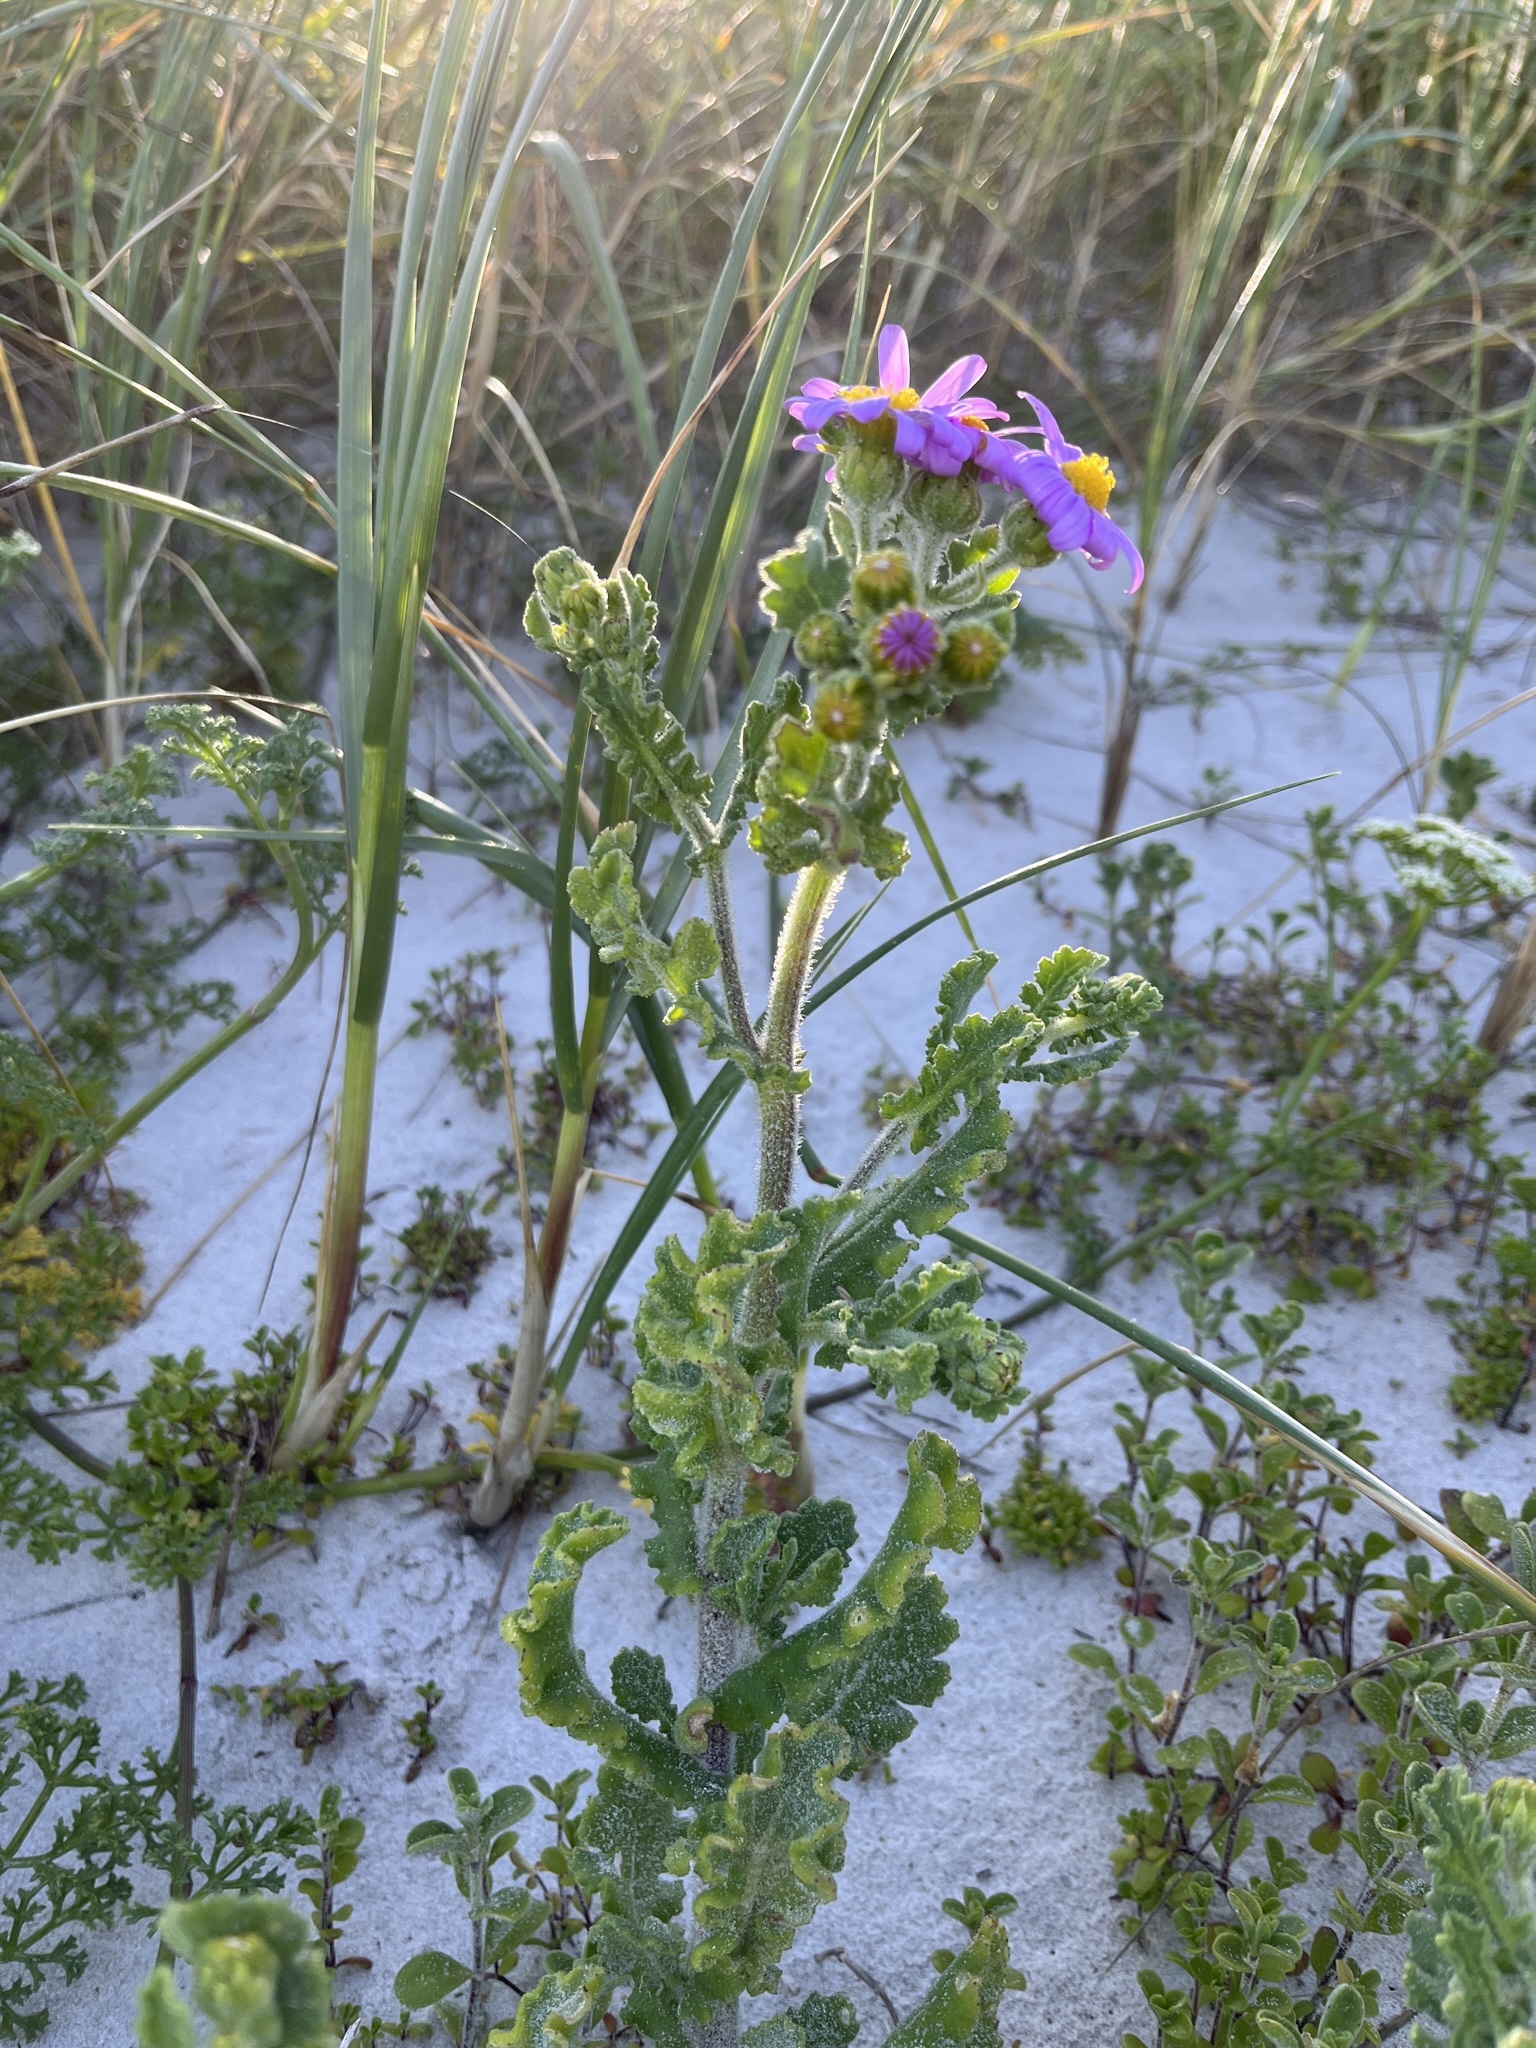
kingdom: Plantae
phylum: Tracheophyta
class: Magnoliopsida
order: Asterales
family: Asteraceae
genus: Senecio
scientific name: Senecio elegans
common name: Purple groundsel
